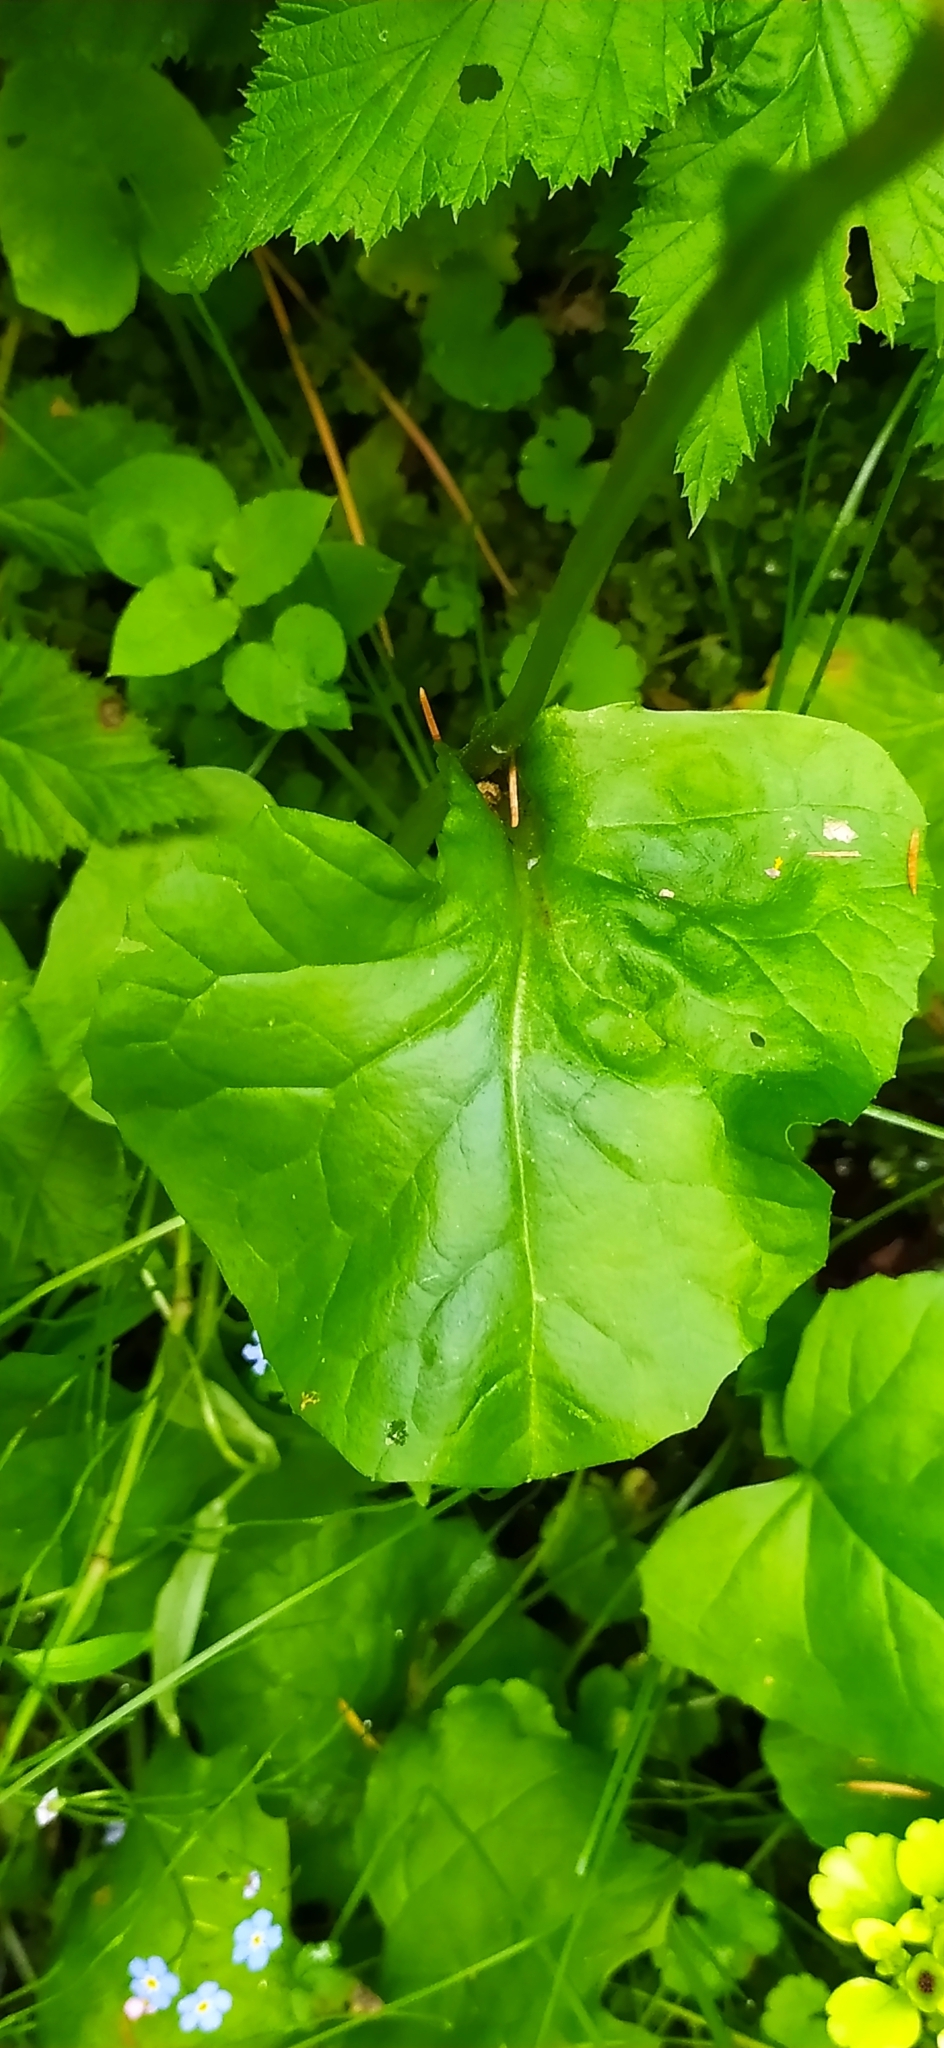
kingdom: Plantae
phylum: Tracheophyta
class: Magnoliopsida
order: Asterales
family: Asteraceae
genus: Ligularia
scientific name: Ligularia sibirica
